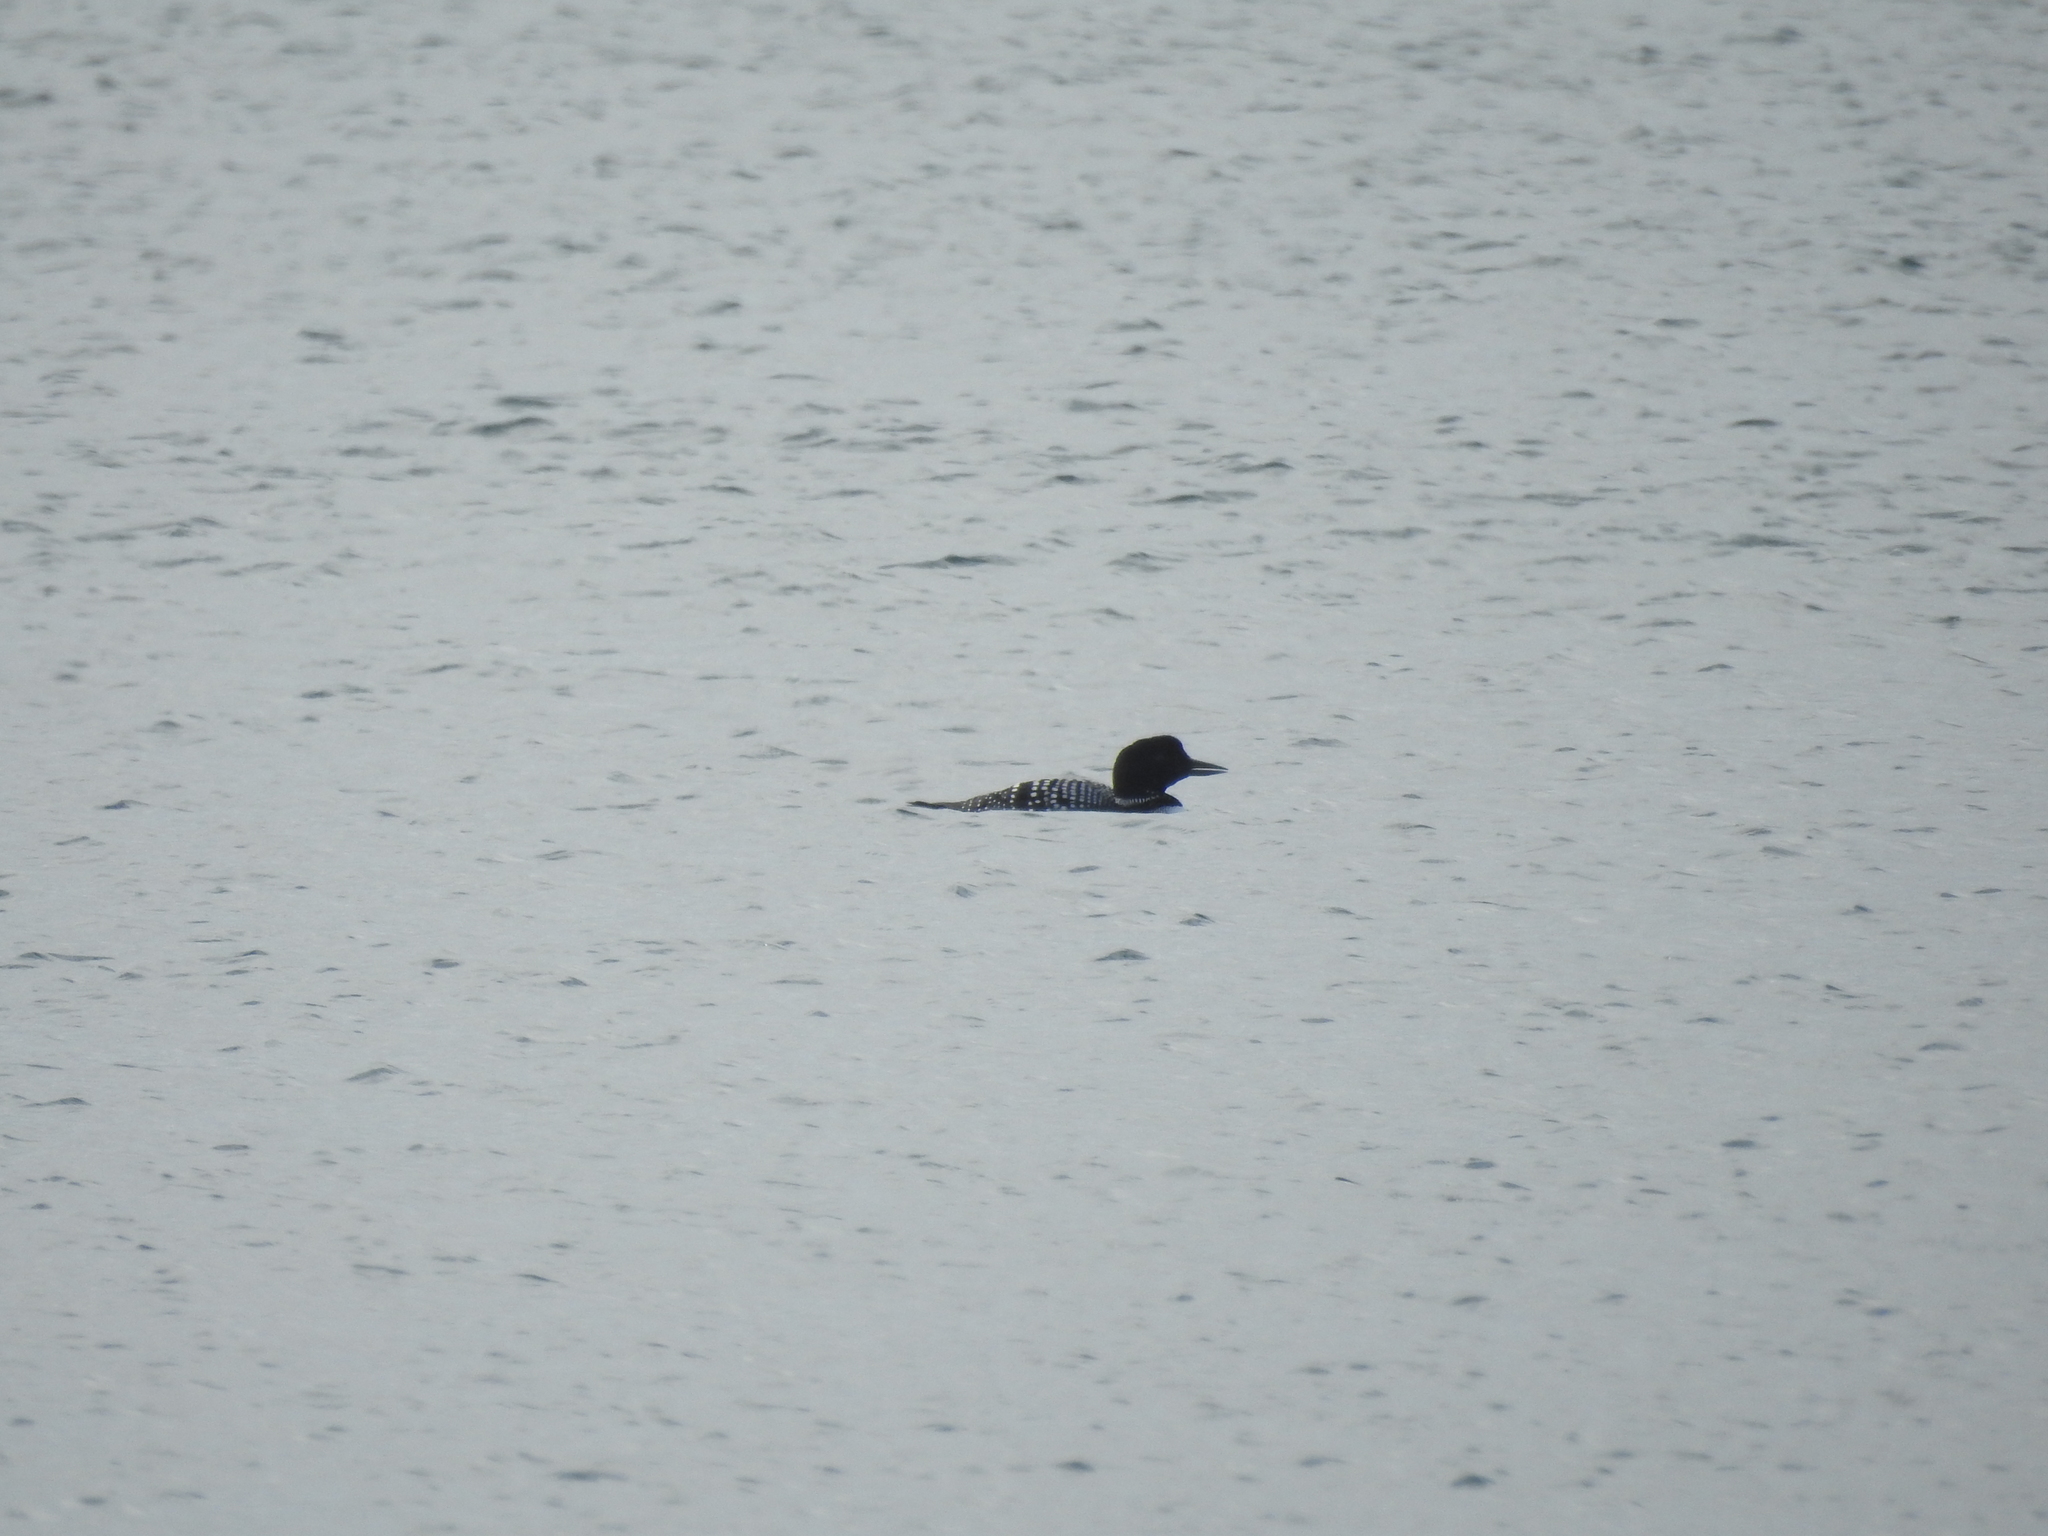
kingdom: Animalia
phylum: Chordata
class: Aves
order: Gaviiformes
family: Gaviidae
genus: Gavia
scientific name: Gavia immer
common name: Common loon
